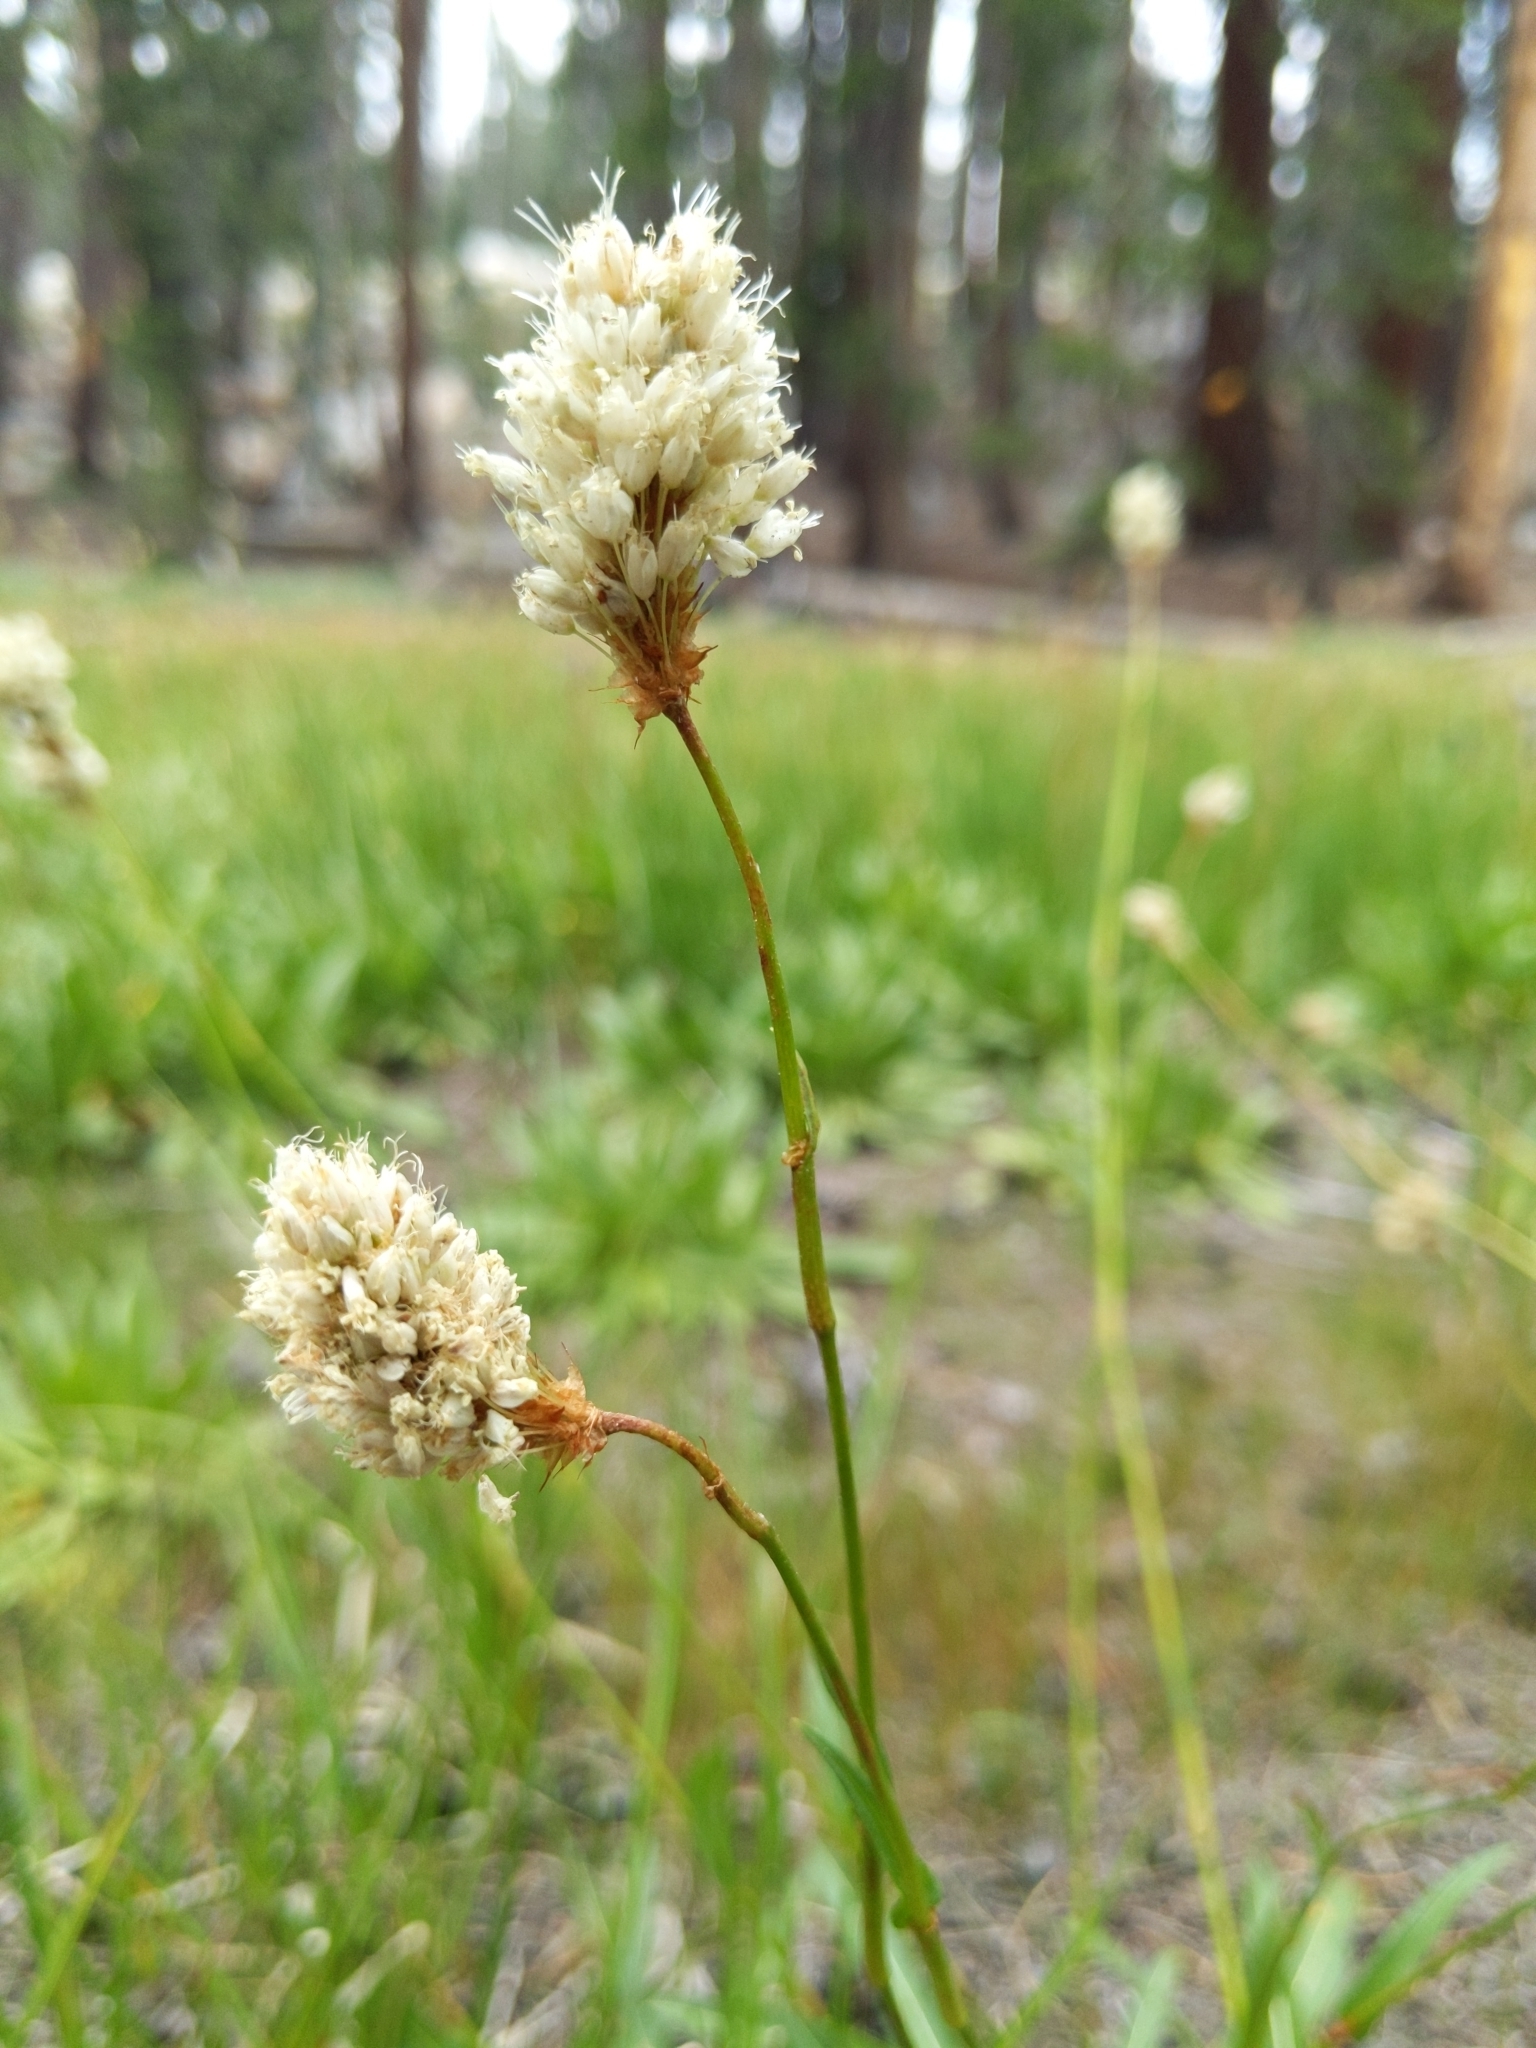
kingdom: Plantae
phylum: Tracheophyta
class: Magnoliopsida
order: Caryophyllales
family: Polygonaceae
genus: Bistorta
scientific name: Bistorta bistortoides
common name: American bistort
